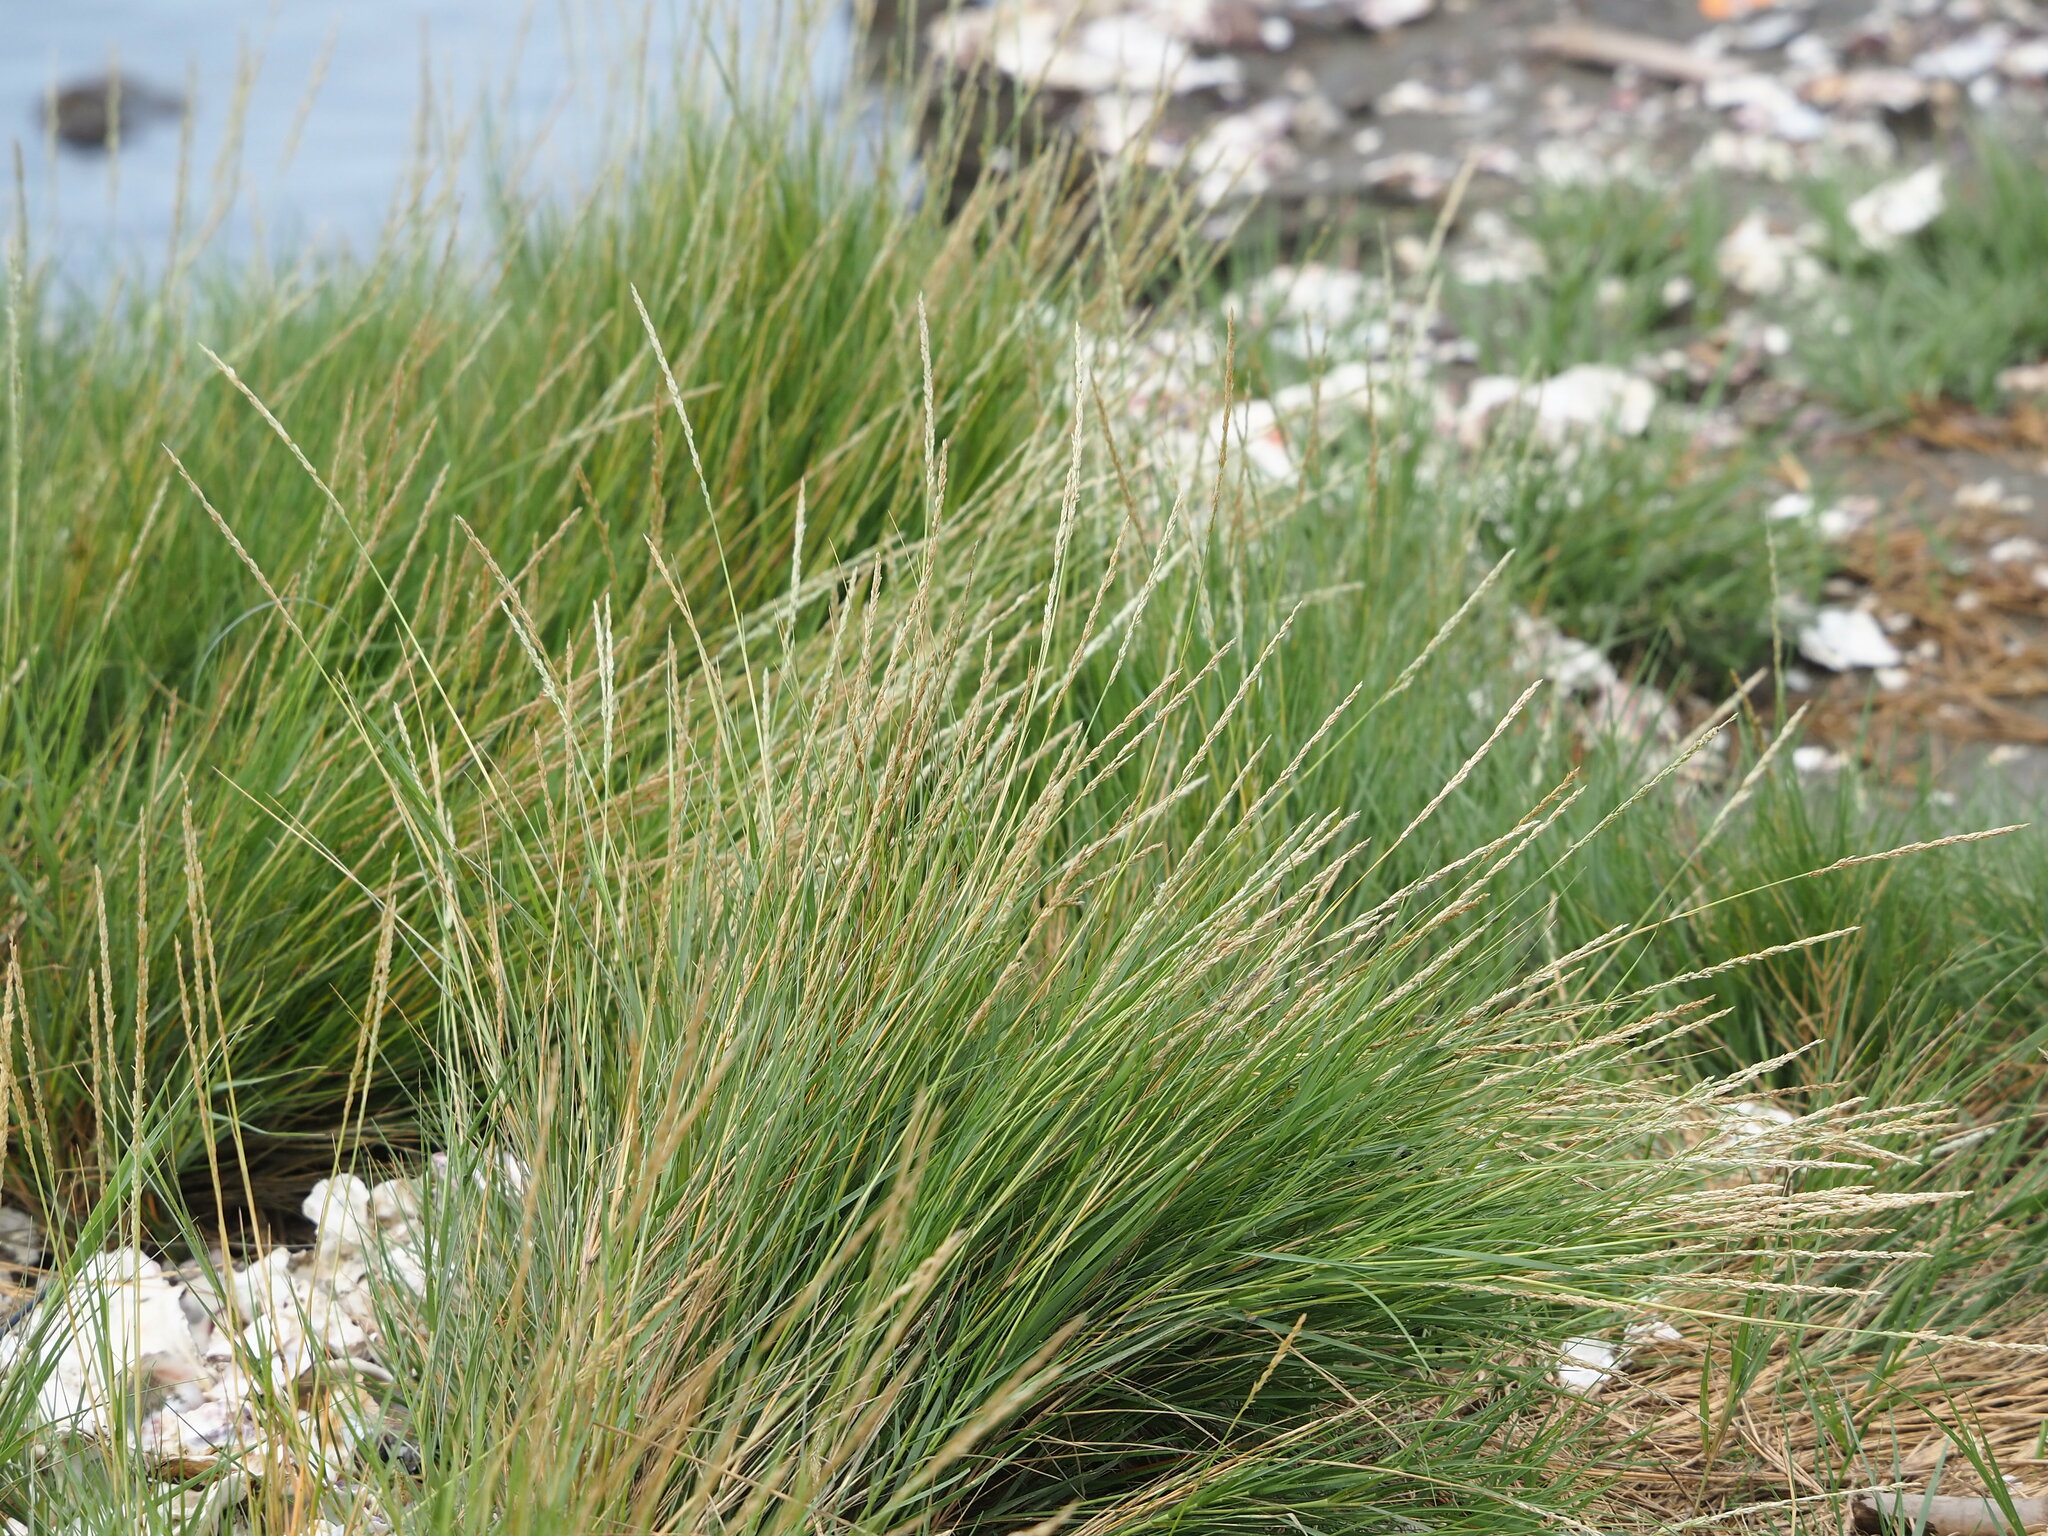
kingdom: Plantae
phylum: Tracheophyta
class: Liliopsida
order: Poales
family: Poaceae
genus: Sporobolus
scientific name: Sporobolus virginicus
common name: Beach dropseed
